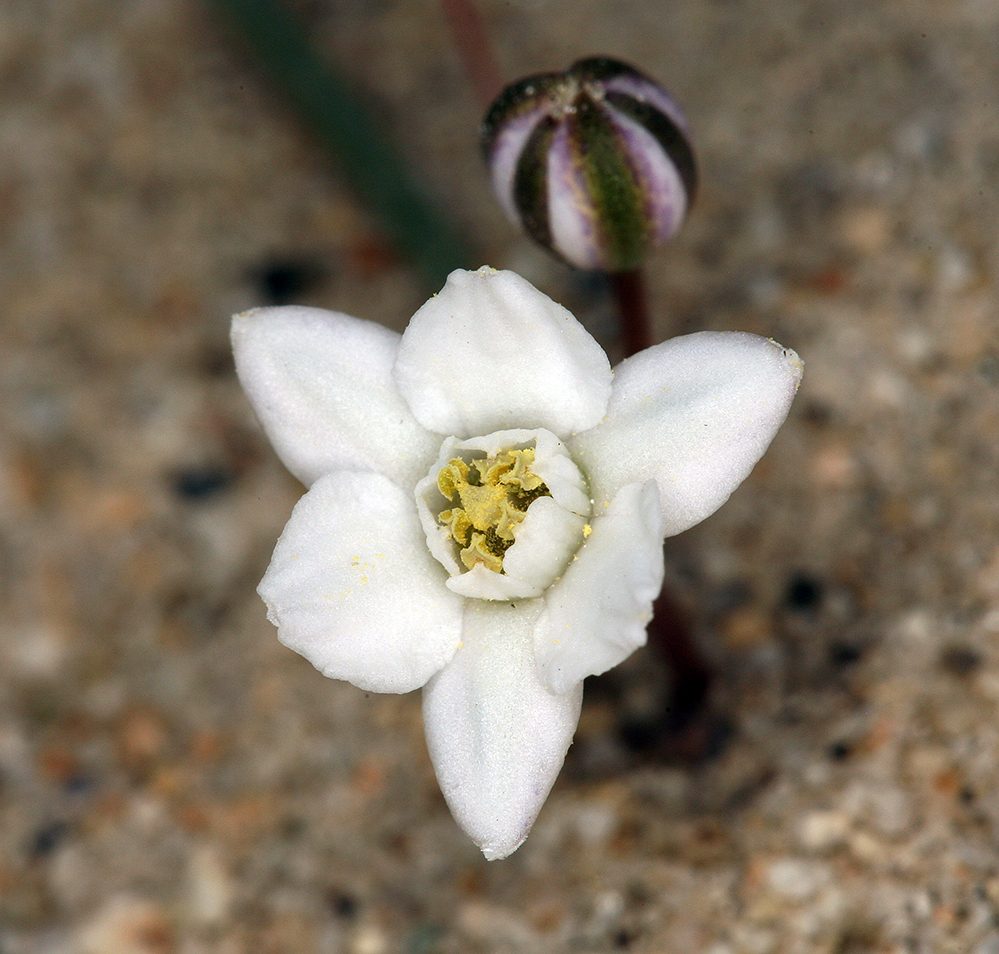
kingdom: Plantae
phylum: Tracheophyta
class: Liliopsida
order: Asparagales
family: Asparagaceae
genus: Muilla
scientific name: Muilla coronata
